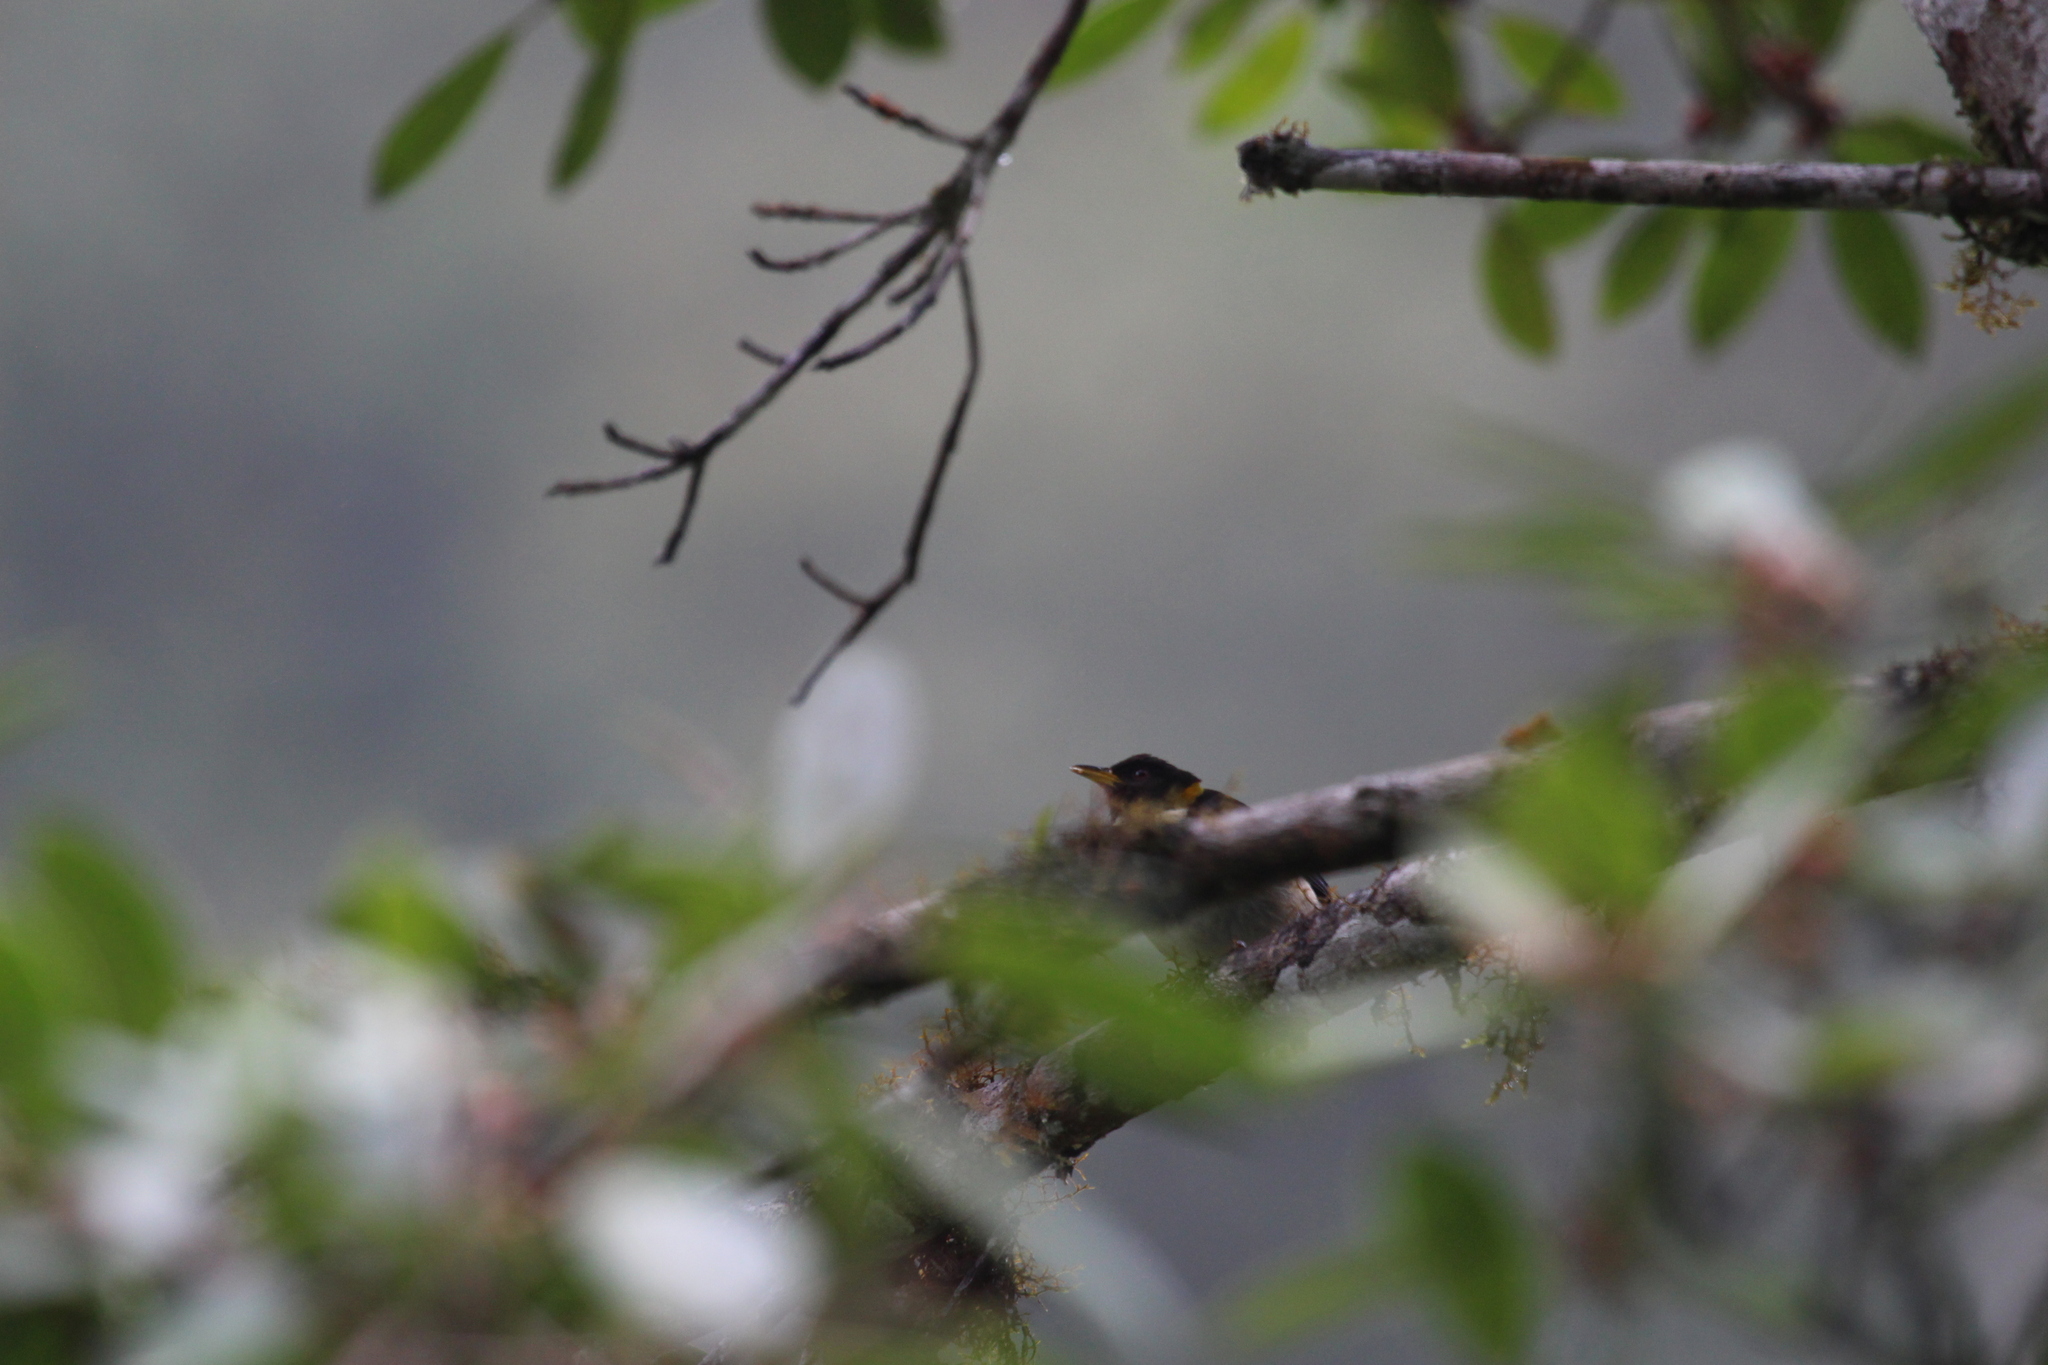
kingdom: Animalia
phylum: Chordata
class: Aves
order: Passeriformes
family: Thraupidae
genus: Iridophanes
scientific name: Iridophanes pulcherrimus
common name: Golden-collared honeycreeper
